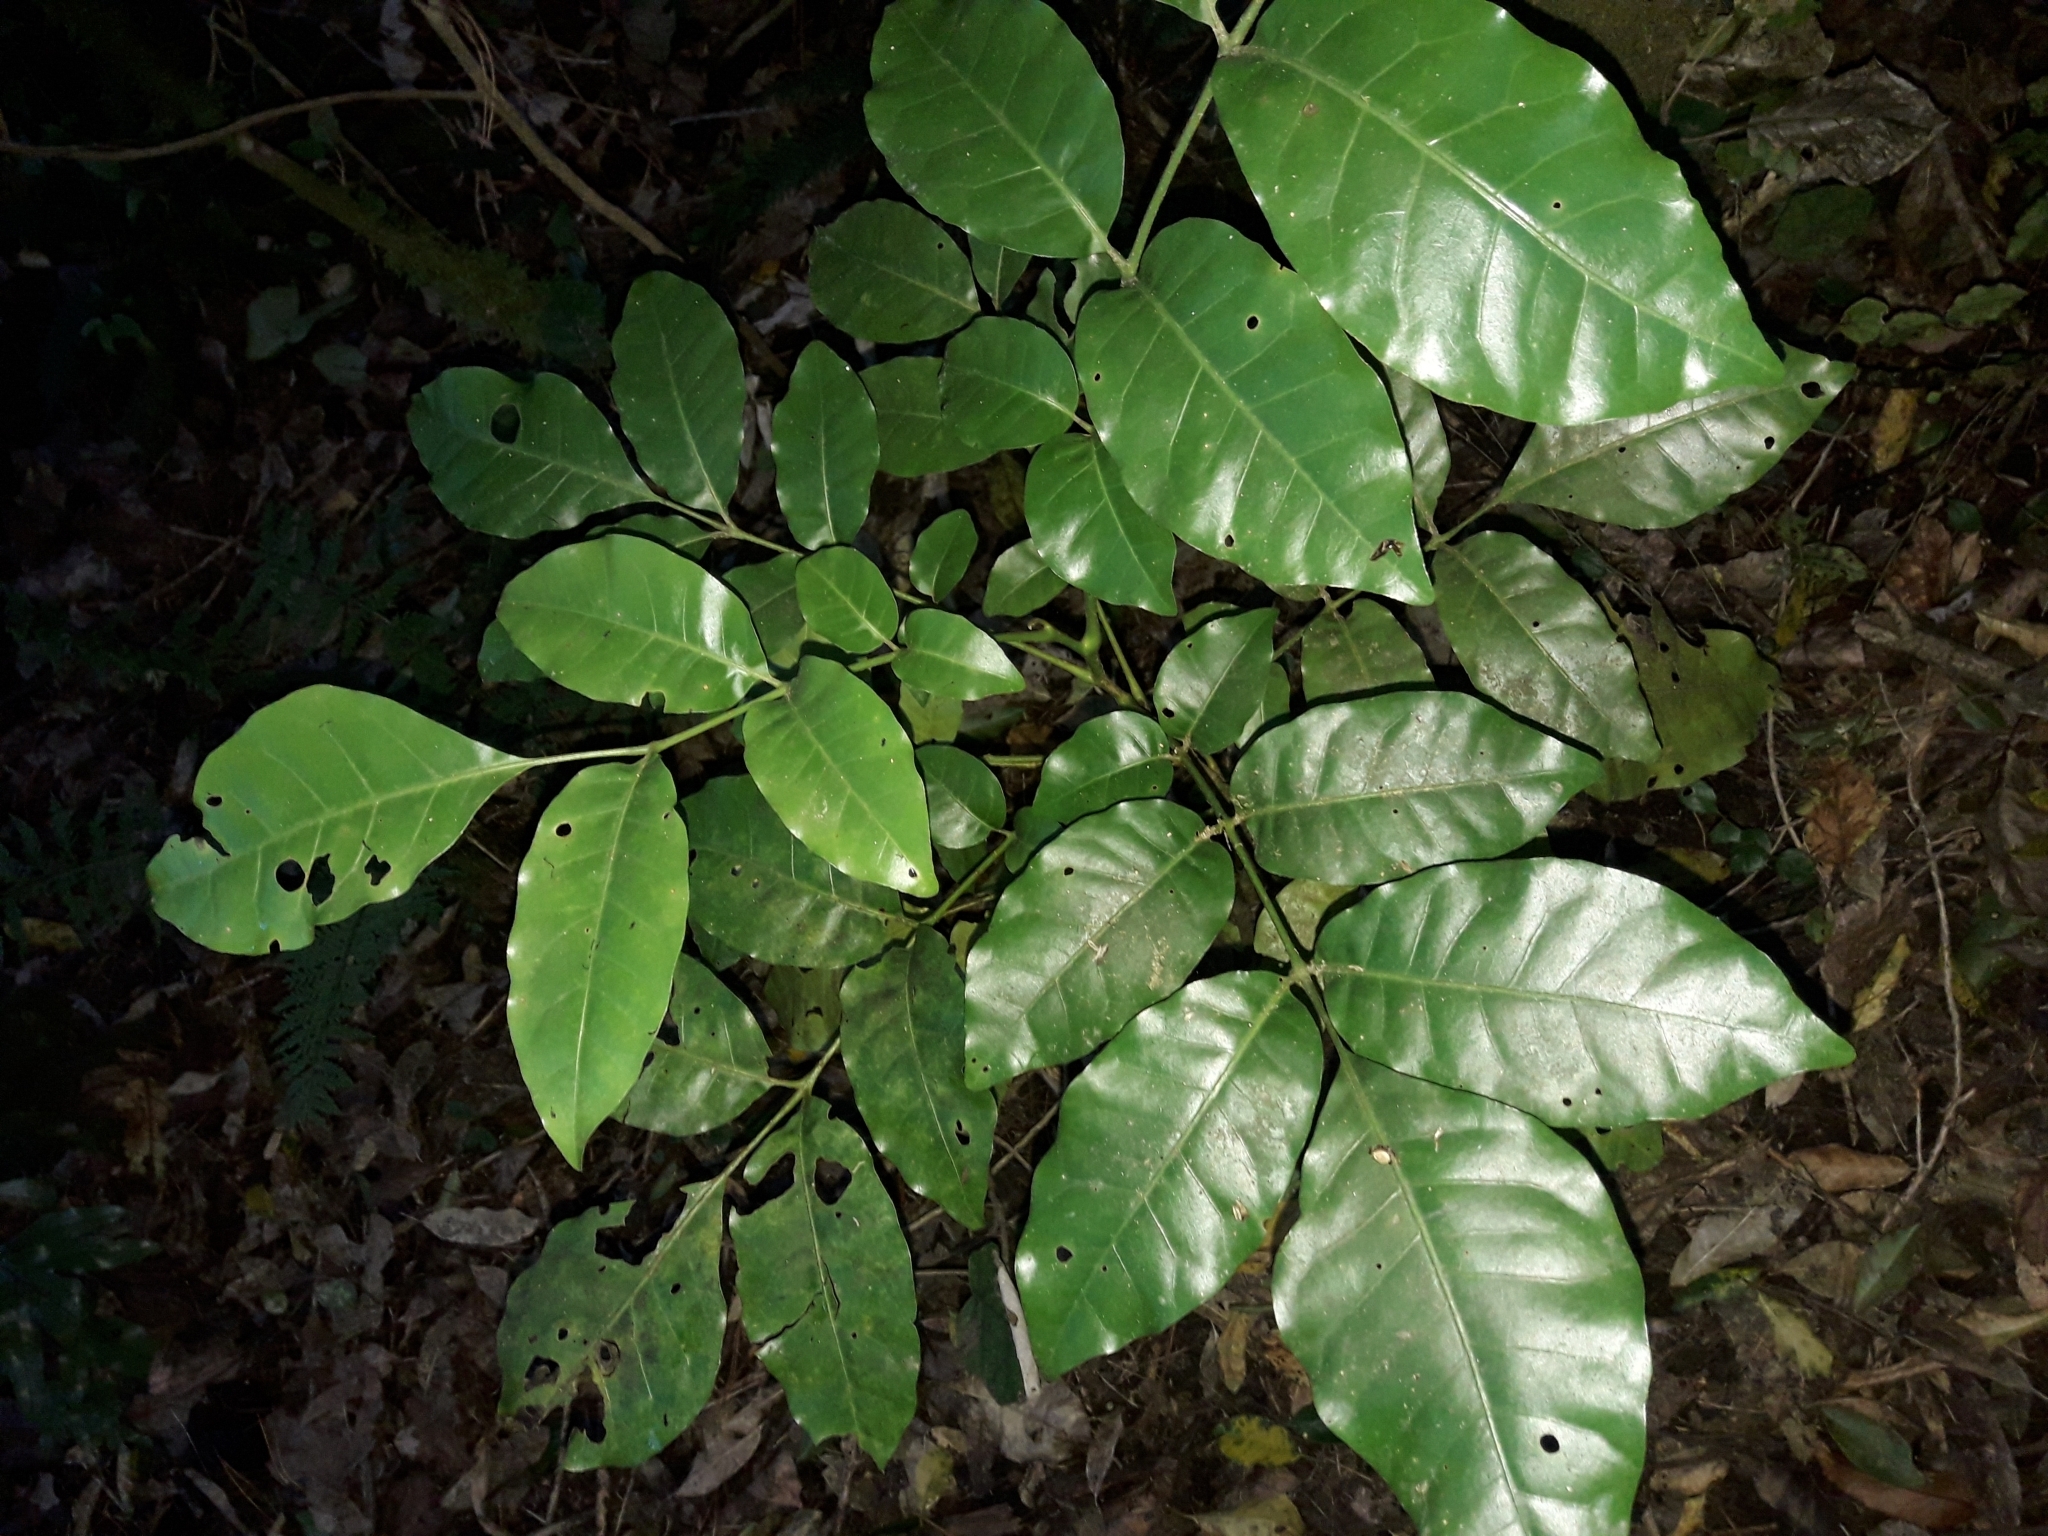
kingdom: Plantae
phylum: Tracheophyta
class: Magnoliopsida
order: Sapindales
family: Meliaceae
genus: Didymocheton
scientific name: Didymocheton spectabilis
